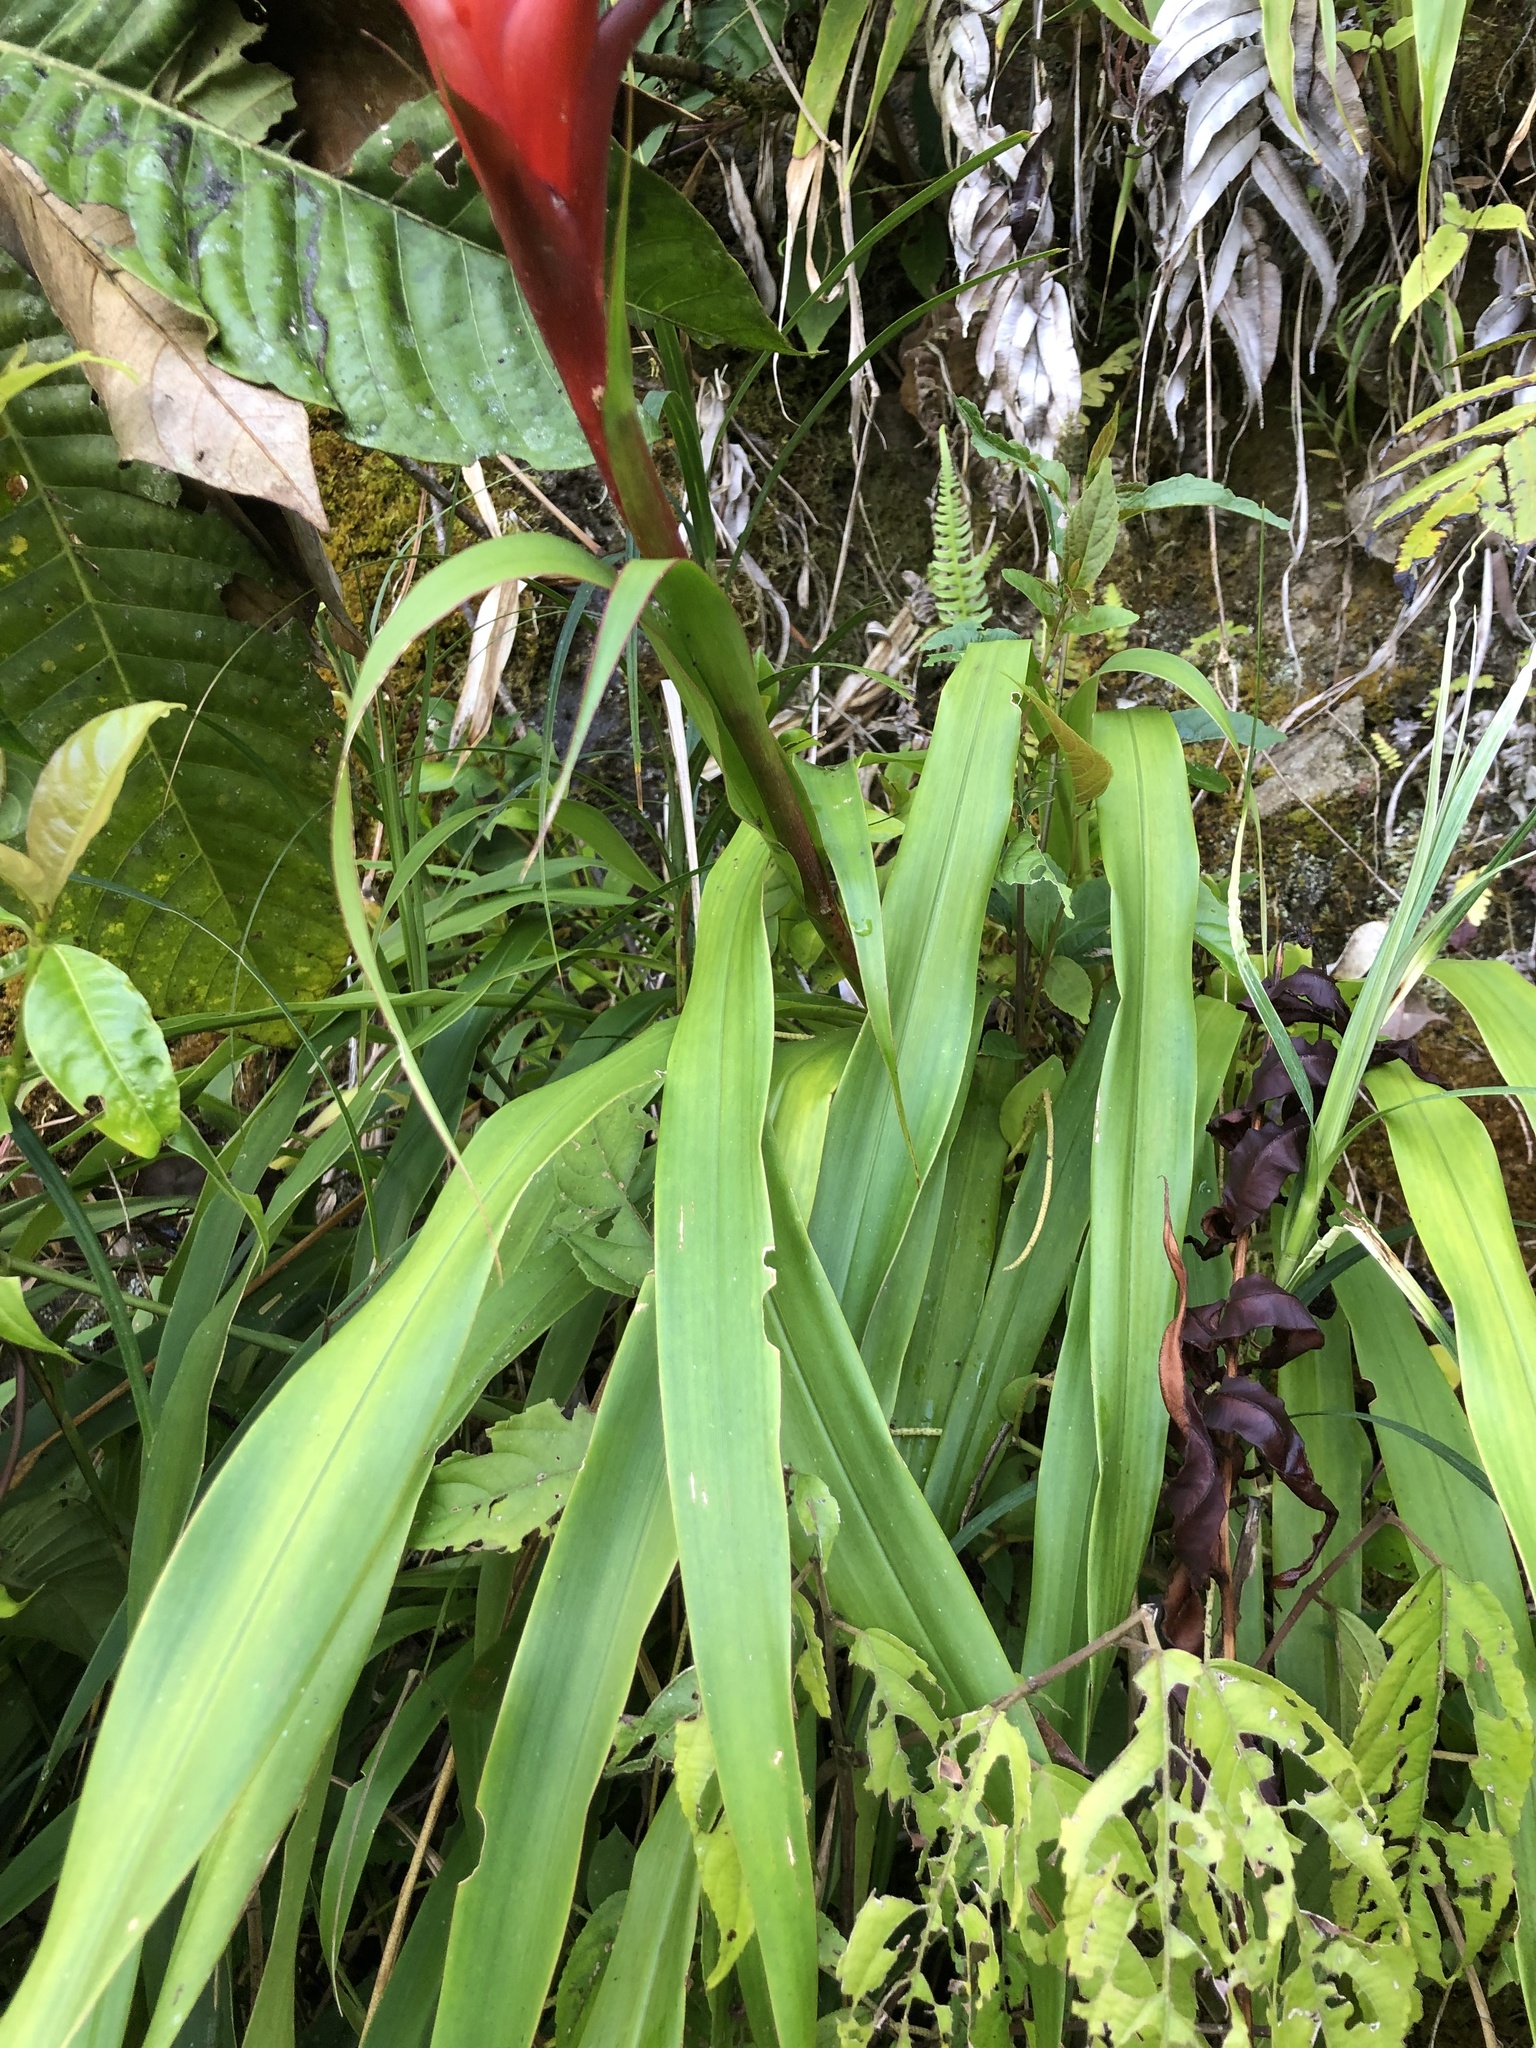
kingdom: Plantae
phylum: Tracheophyta
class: Liliopsida
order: Poales
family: Bromeliaceae
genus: Pitcairnia
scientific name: Pitcairnia hitchcockiana
